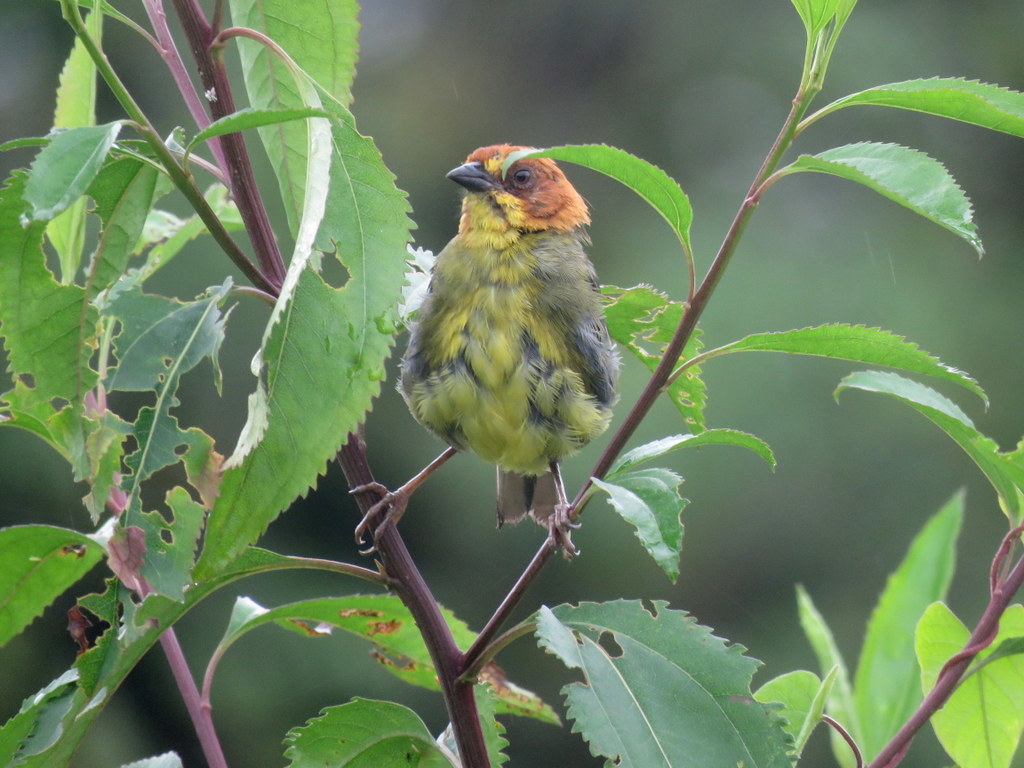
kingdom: Animalia
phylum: Chordata
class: Aves
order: Passeriformes
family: Passerellidae
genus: Atlapetes
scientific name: Atlapetes fulviceps
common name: Fulvous-headed brushfinch
